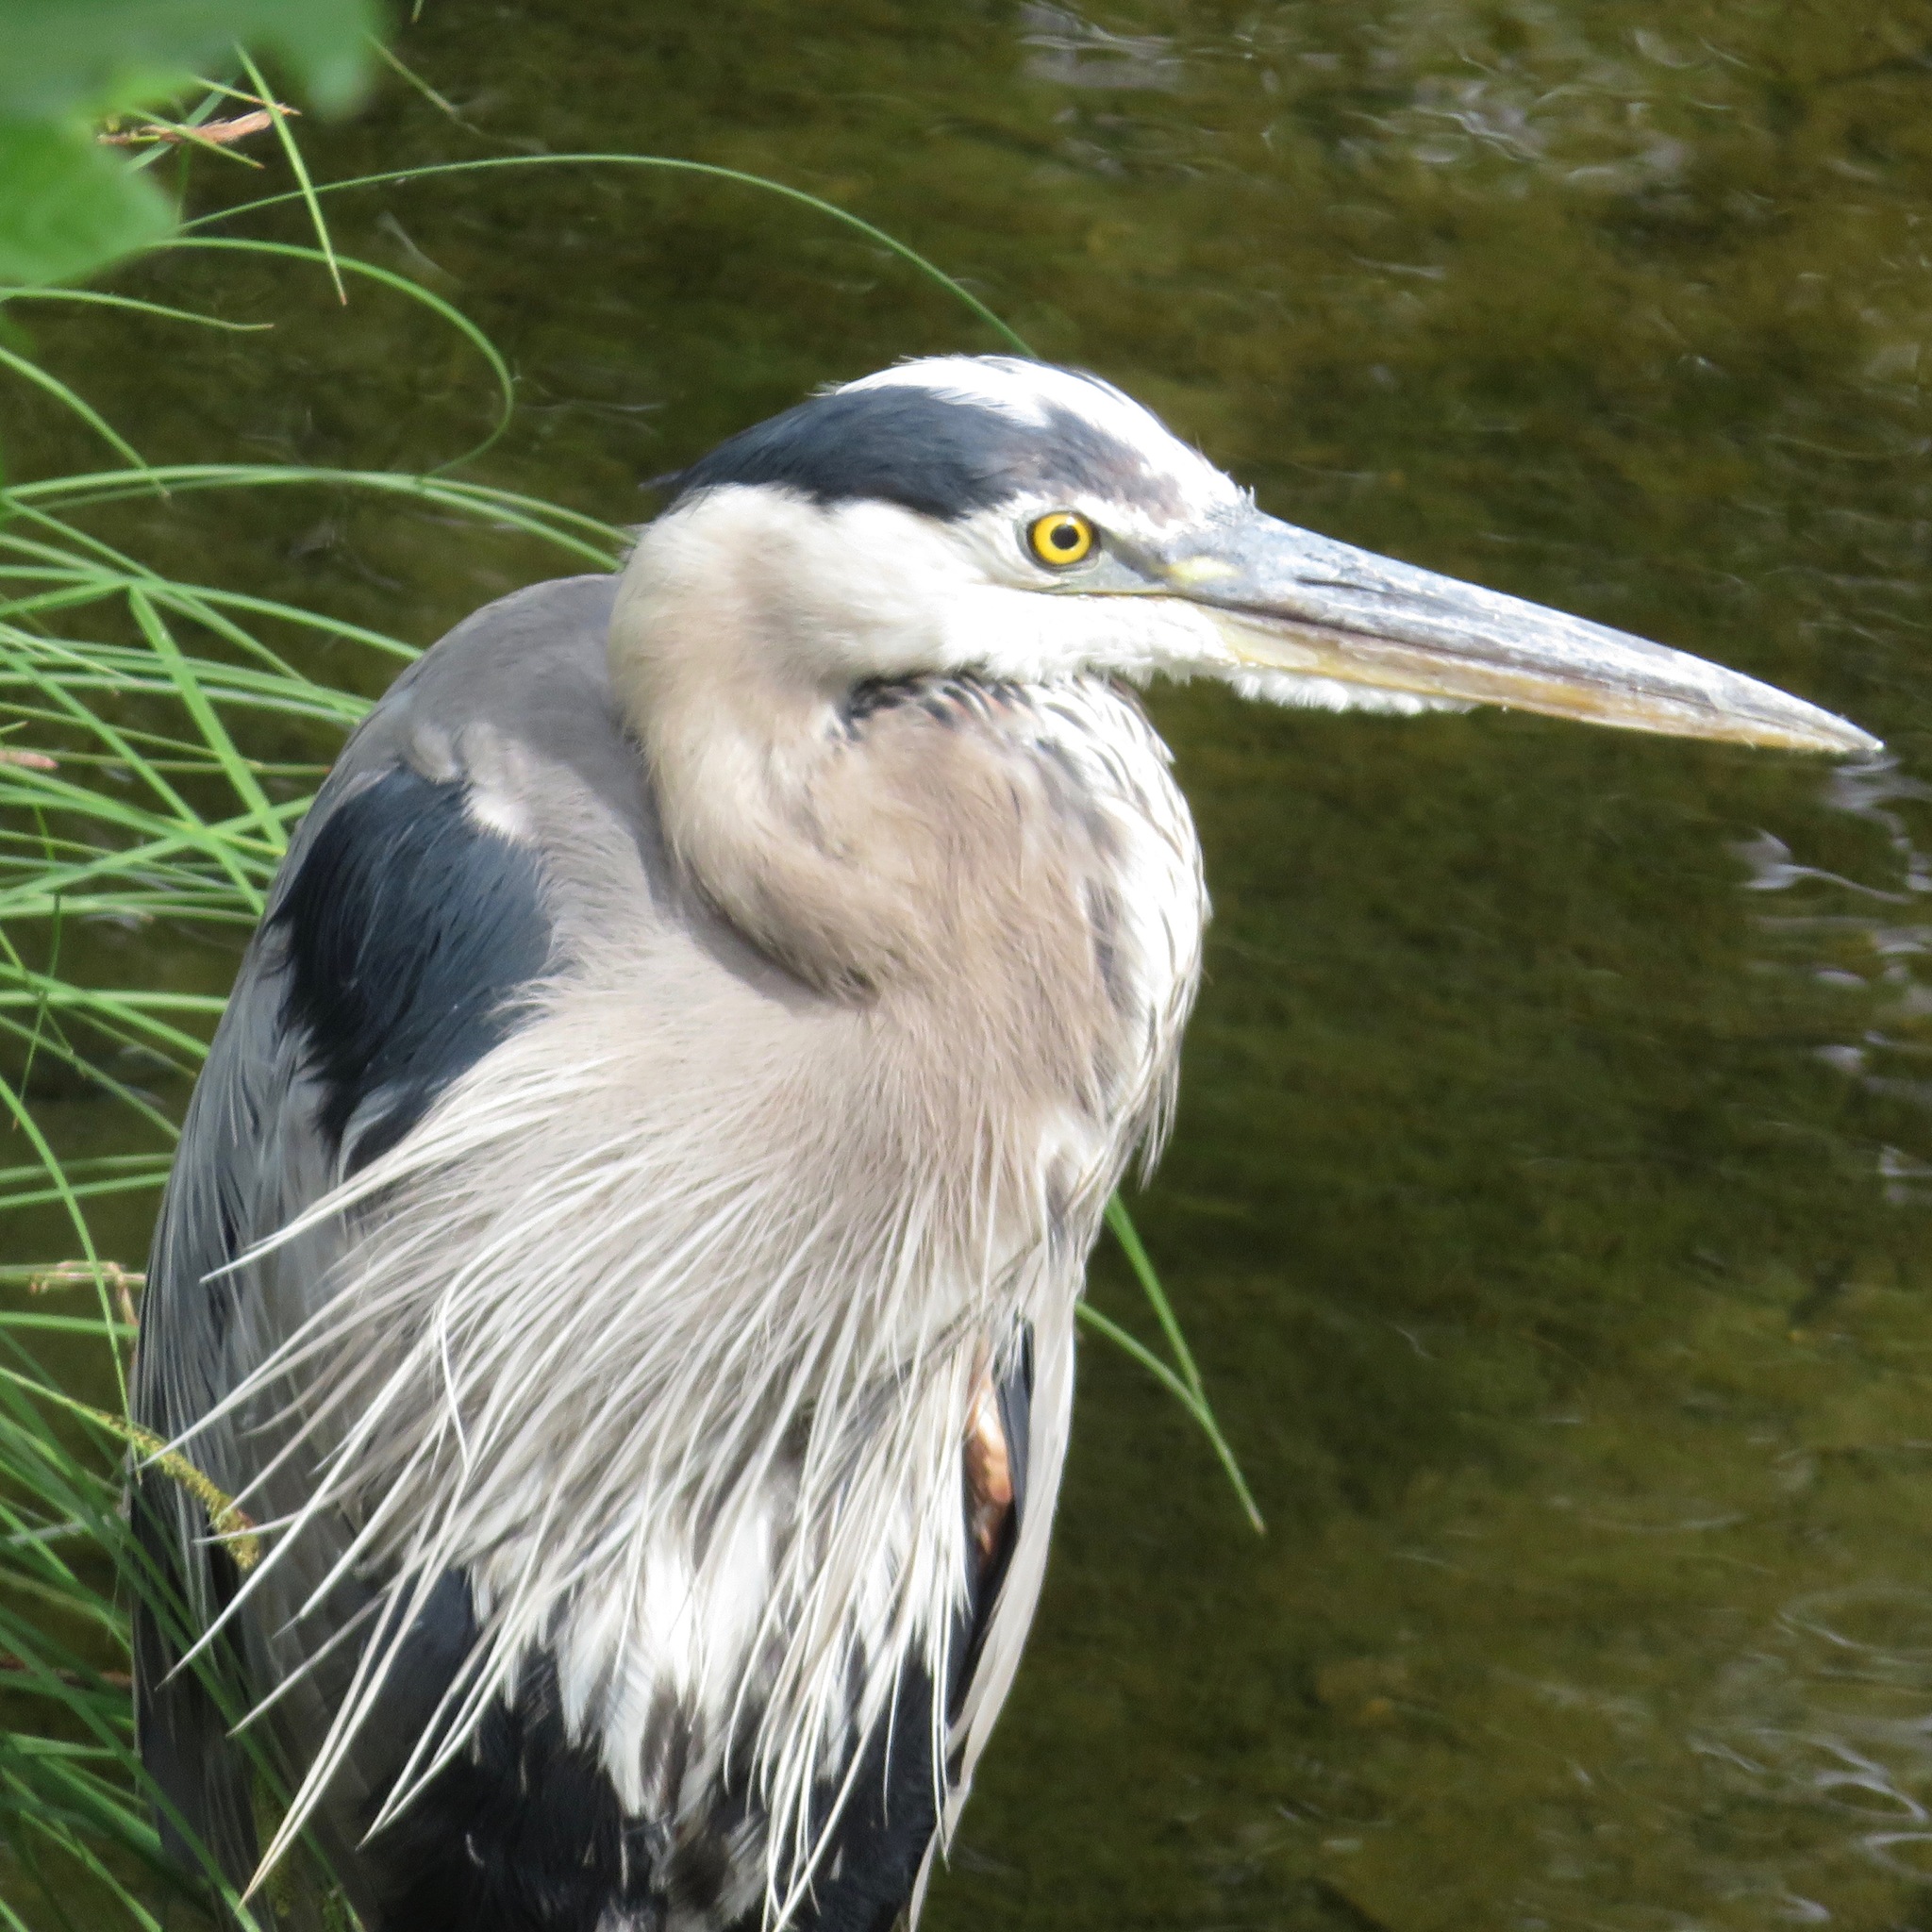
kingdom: Animalia
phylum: Chordata
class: Aves
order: Pelecaniformes
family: Ardeidae
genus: Ardea
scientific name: Ardea herodias
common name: Great blue heron
